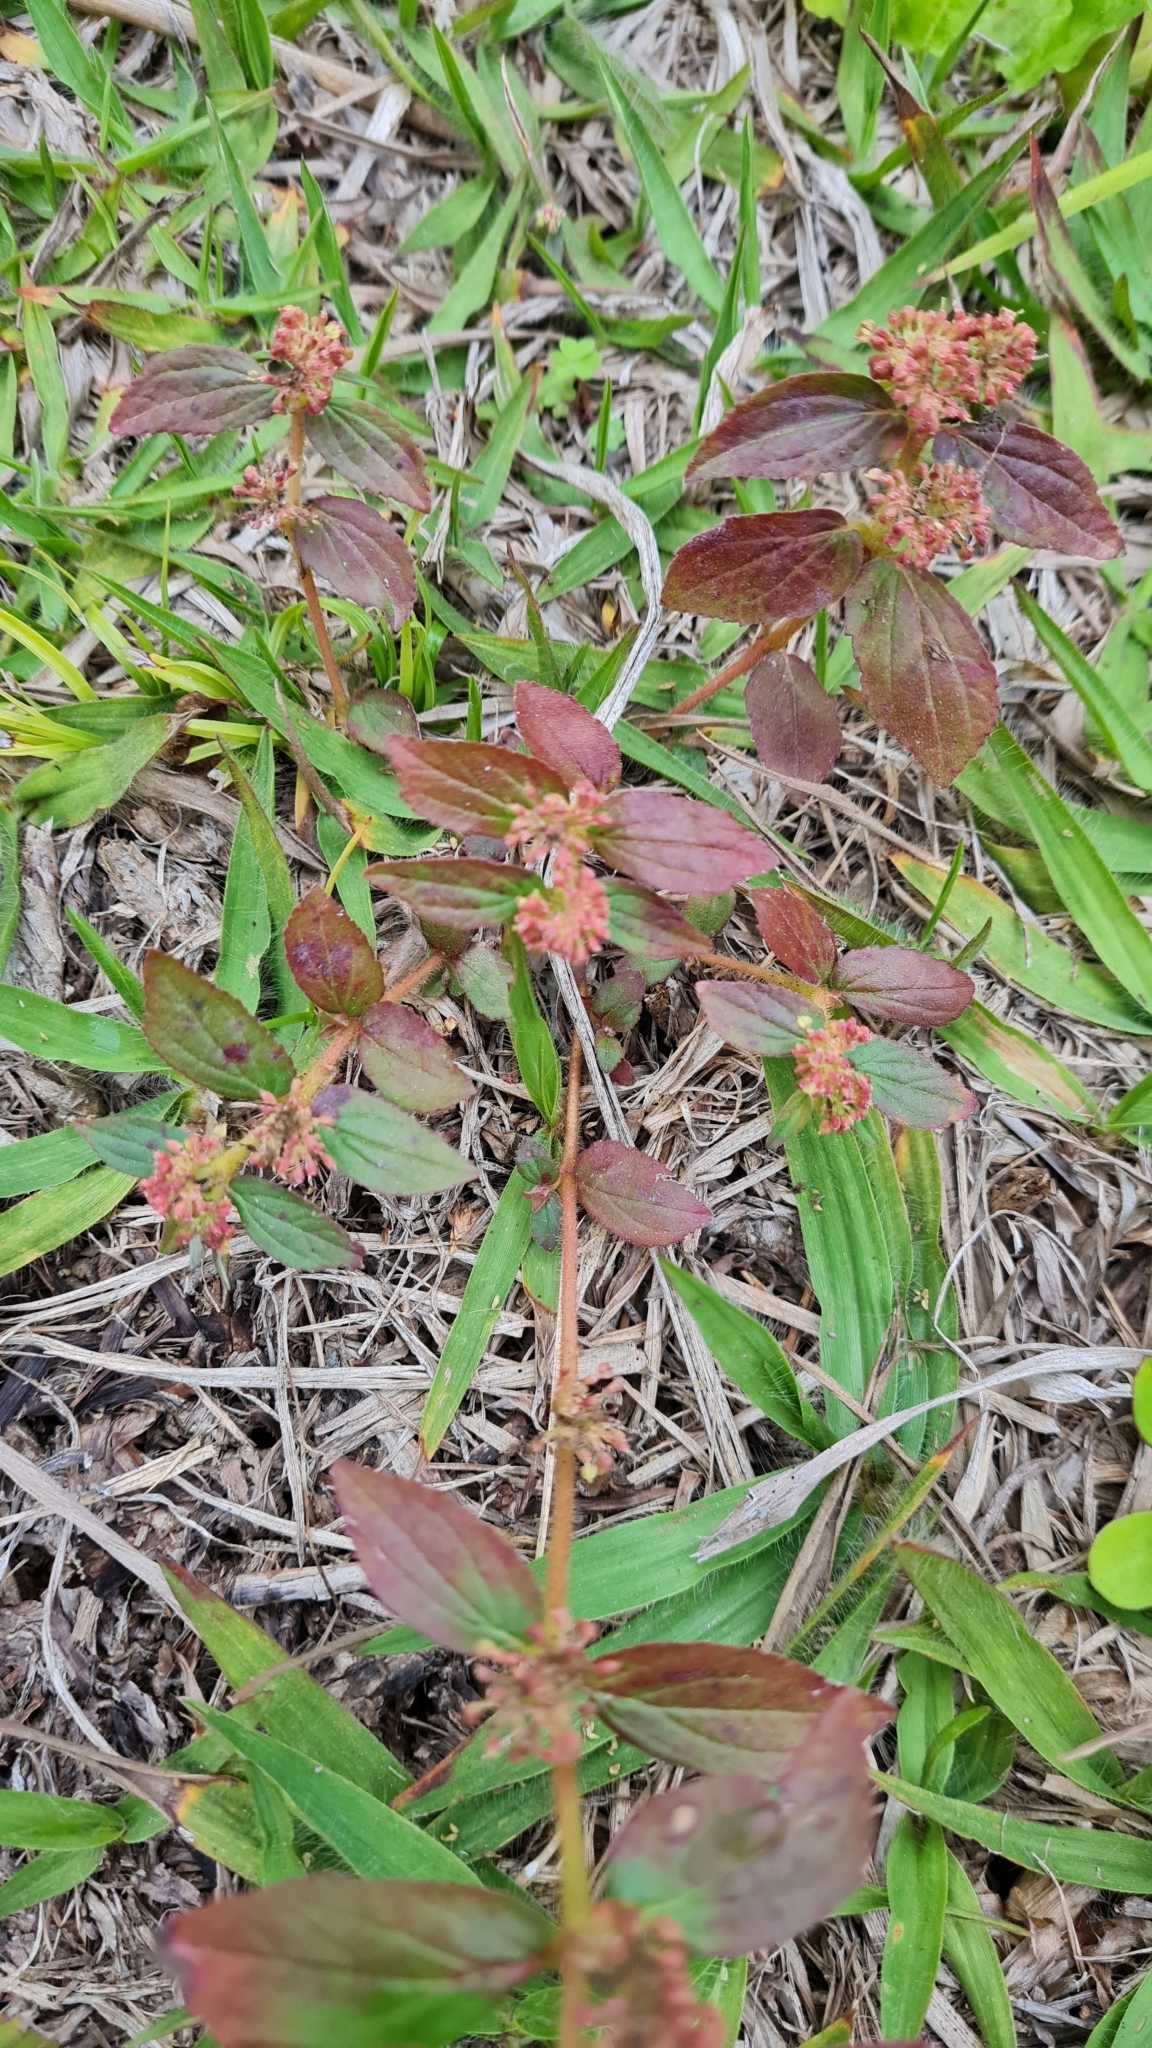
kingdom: Plantae
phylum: Tracheophyta
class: Magnoliopsida
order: Malpighiales
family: Euphorbiaceae
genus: Euphorbia
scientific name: Euphorbia hirta
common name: Pillpod sandmat
